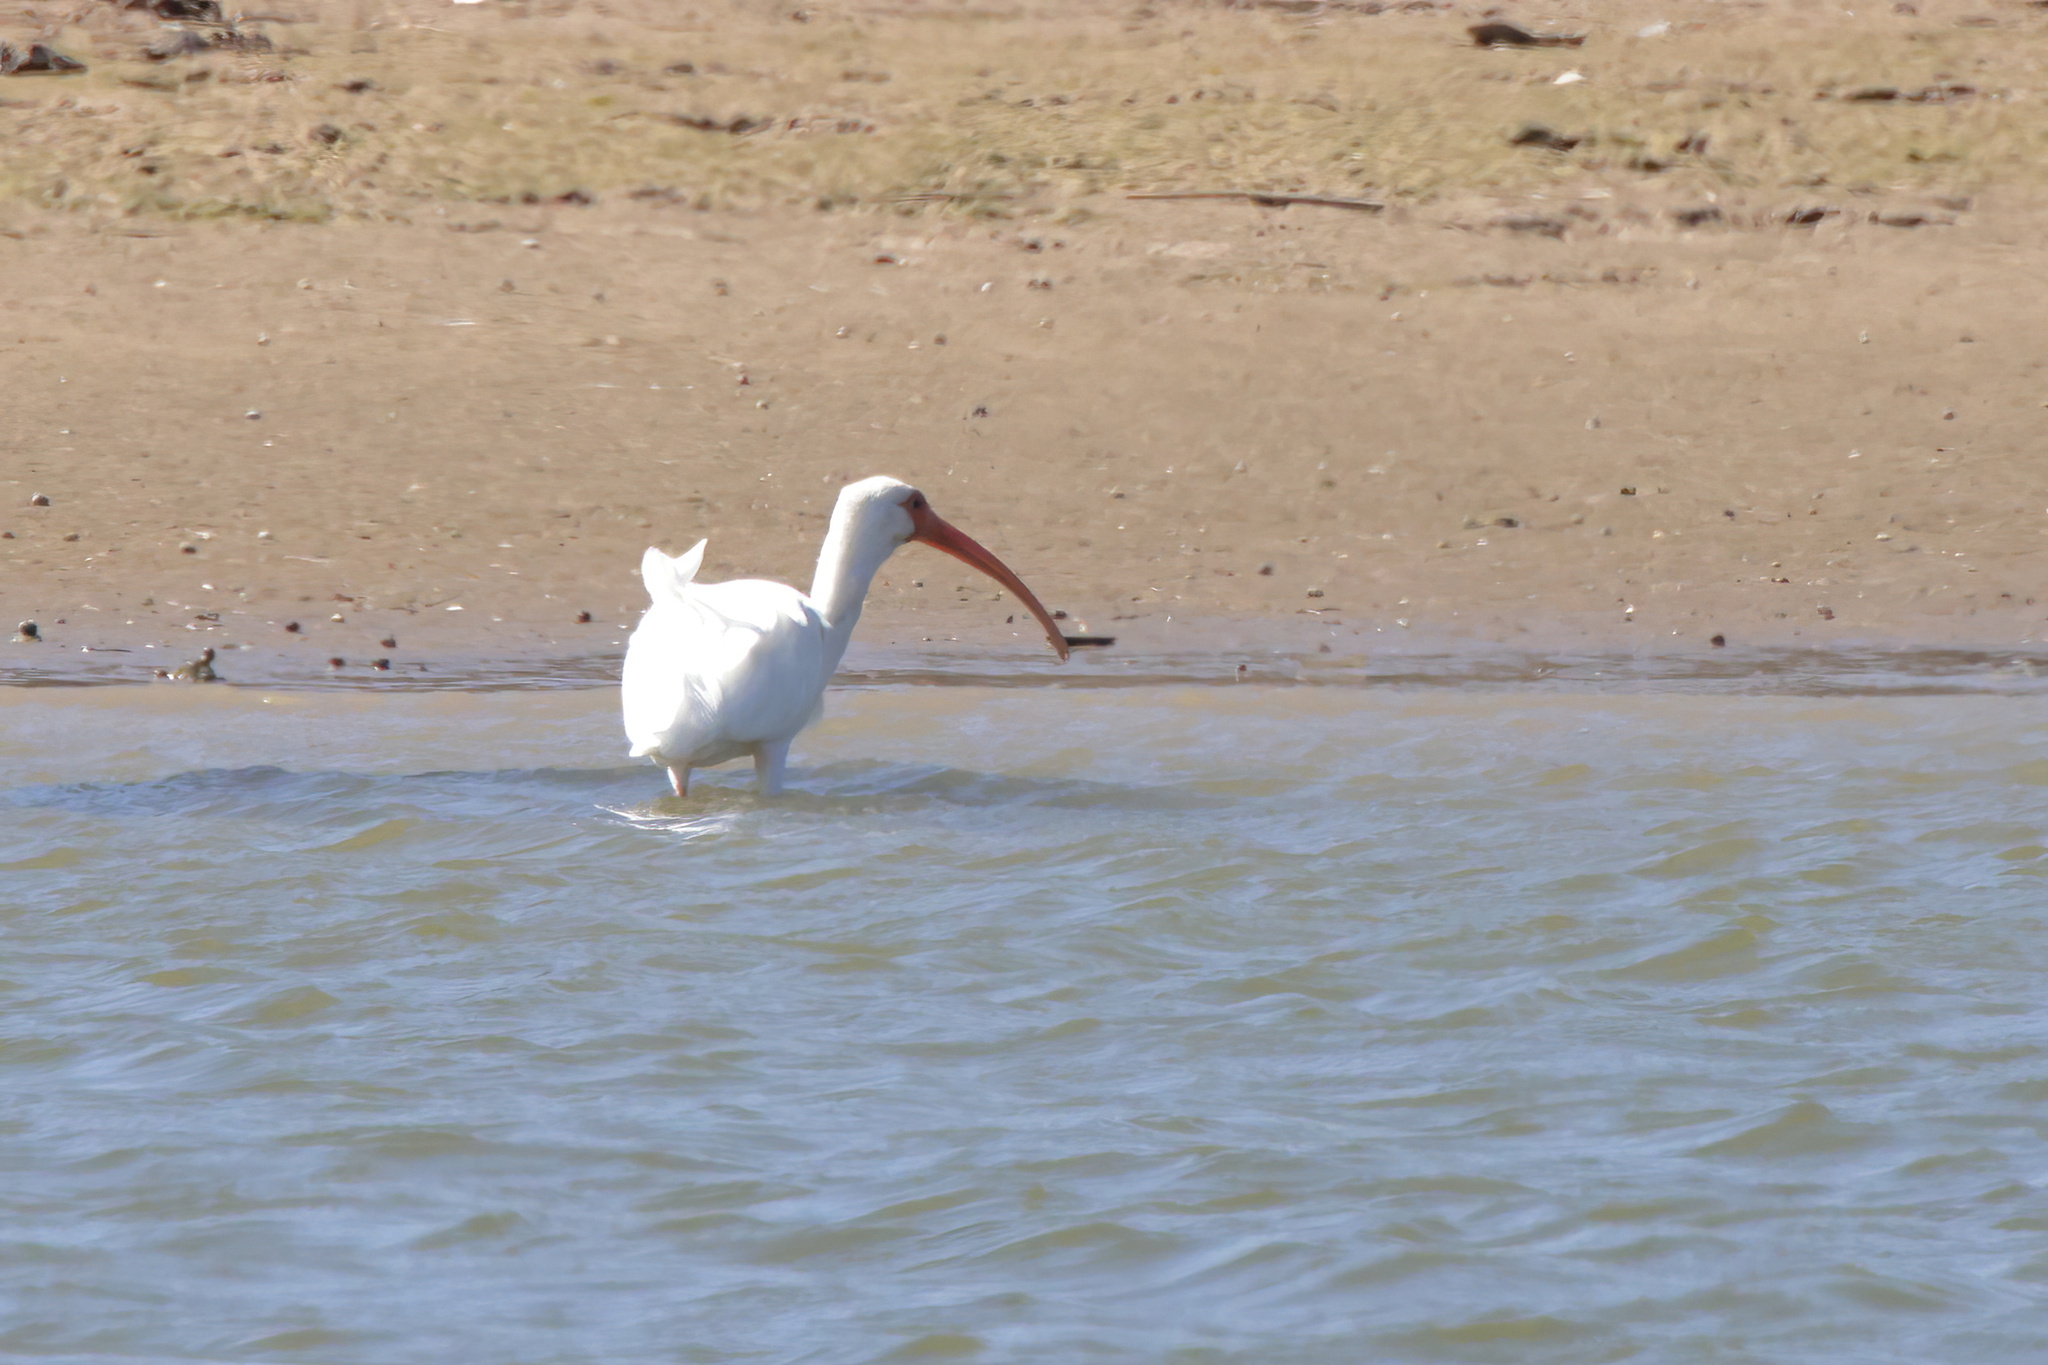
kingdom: Animalia
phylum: Chordata
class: Aves
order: Pelecaniformes
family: Threskiornithidae
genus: Eudocimus
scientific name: Eudocimus albus
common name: White ibis
